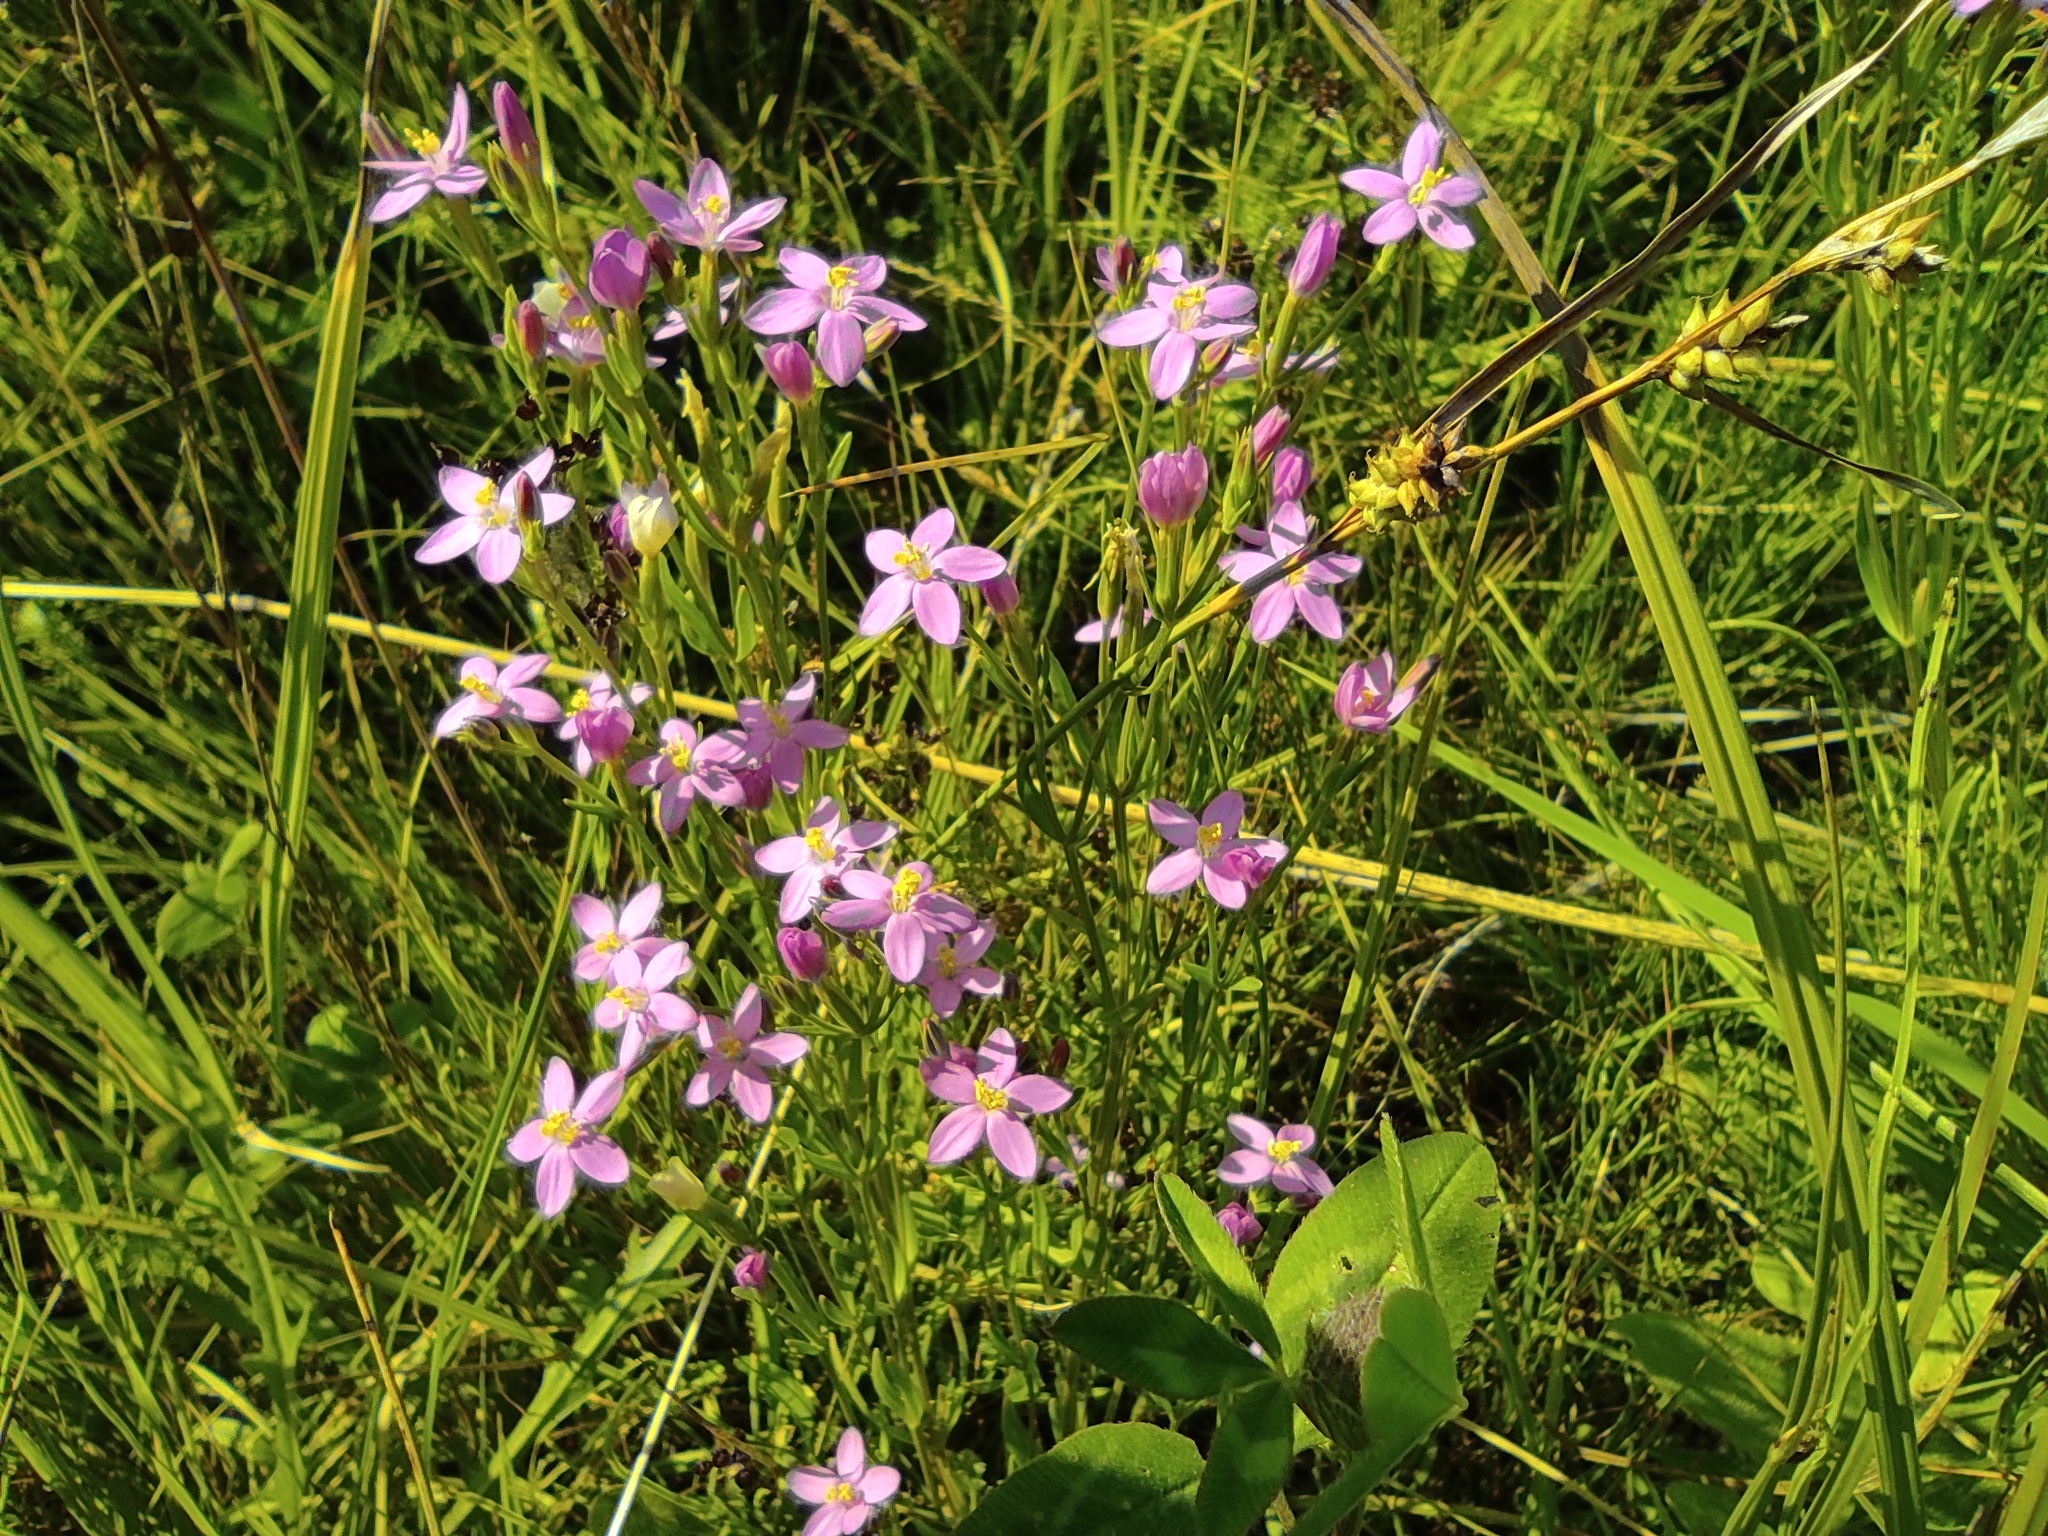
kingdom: Plantae
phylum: Tracheophyta
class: Magnoliopsida
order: Gentianales
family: Gentianaceae
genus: Centaurium
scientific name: Centaurium pulchellum
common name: Lesser centaury
